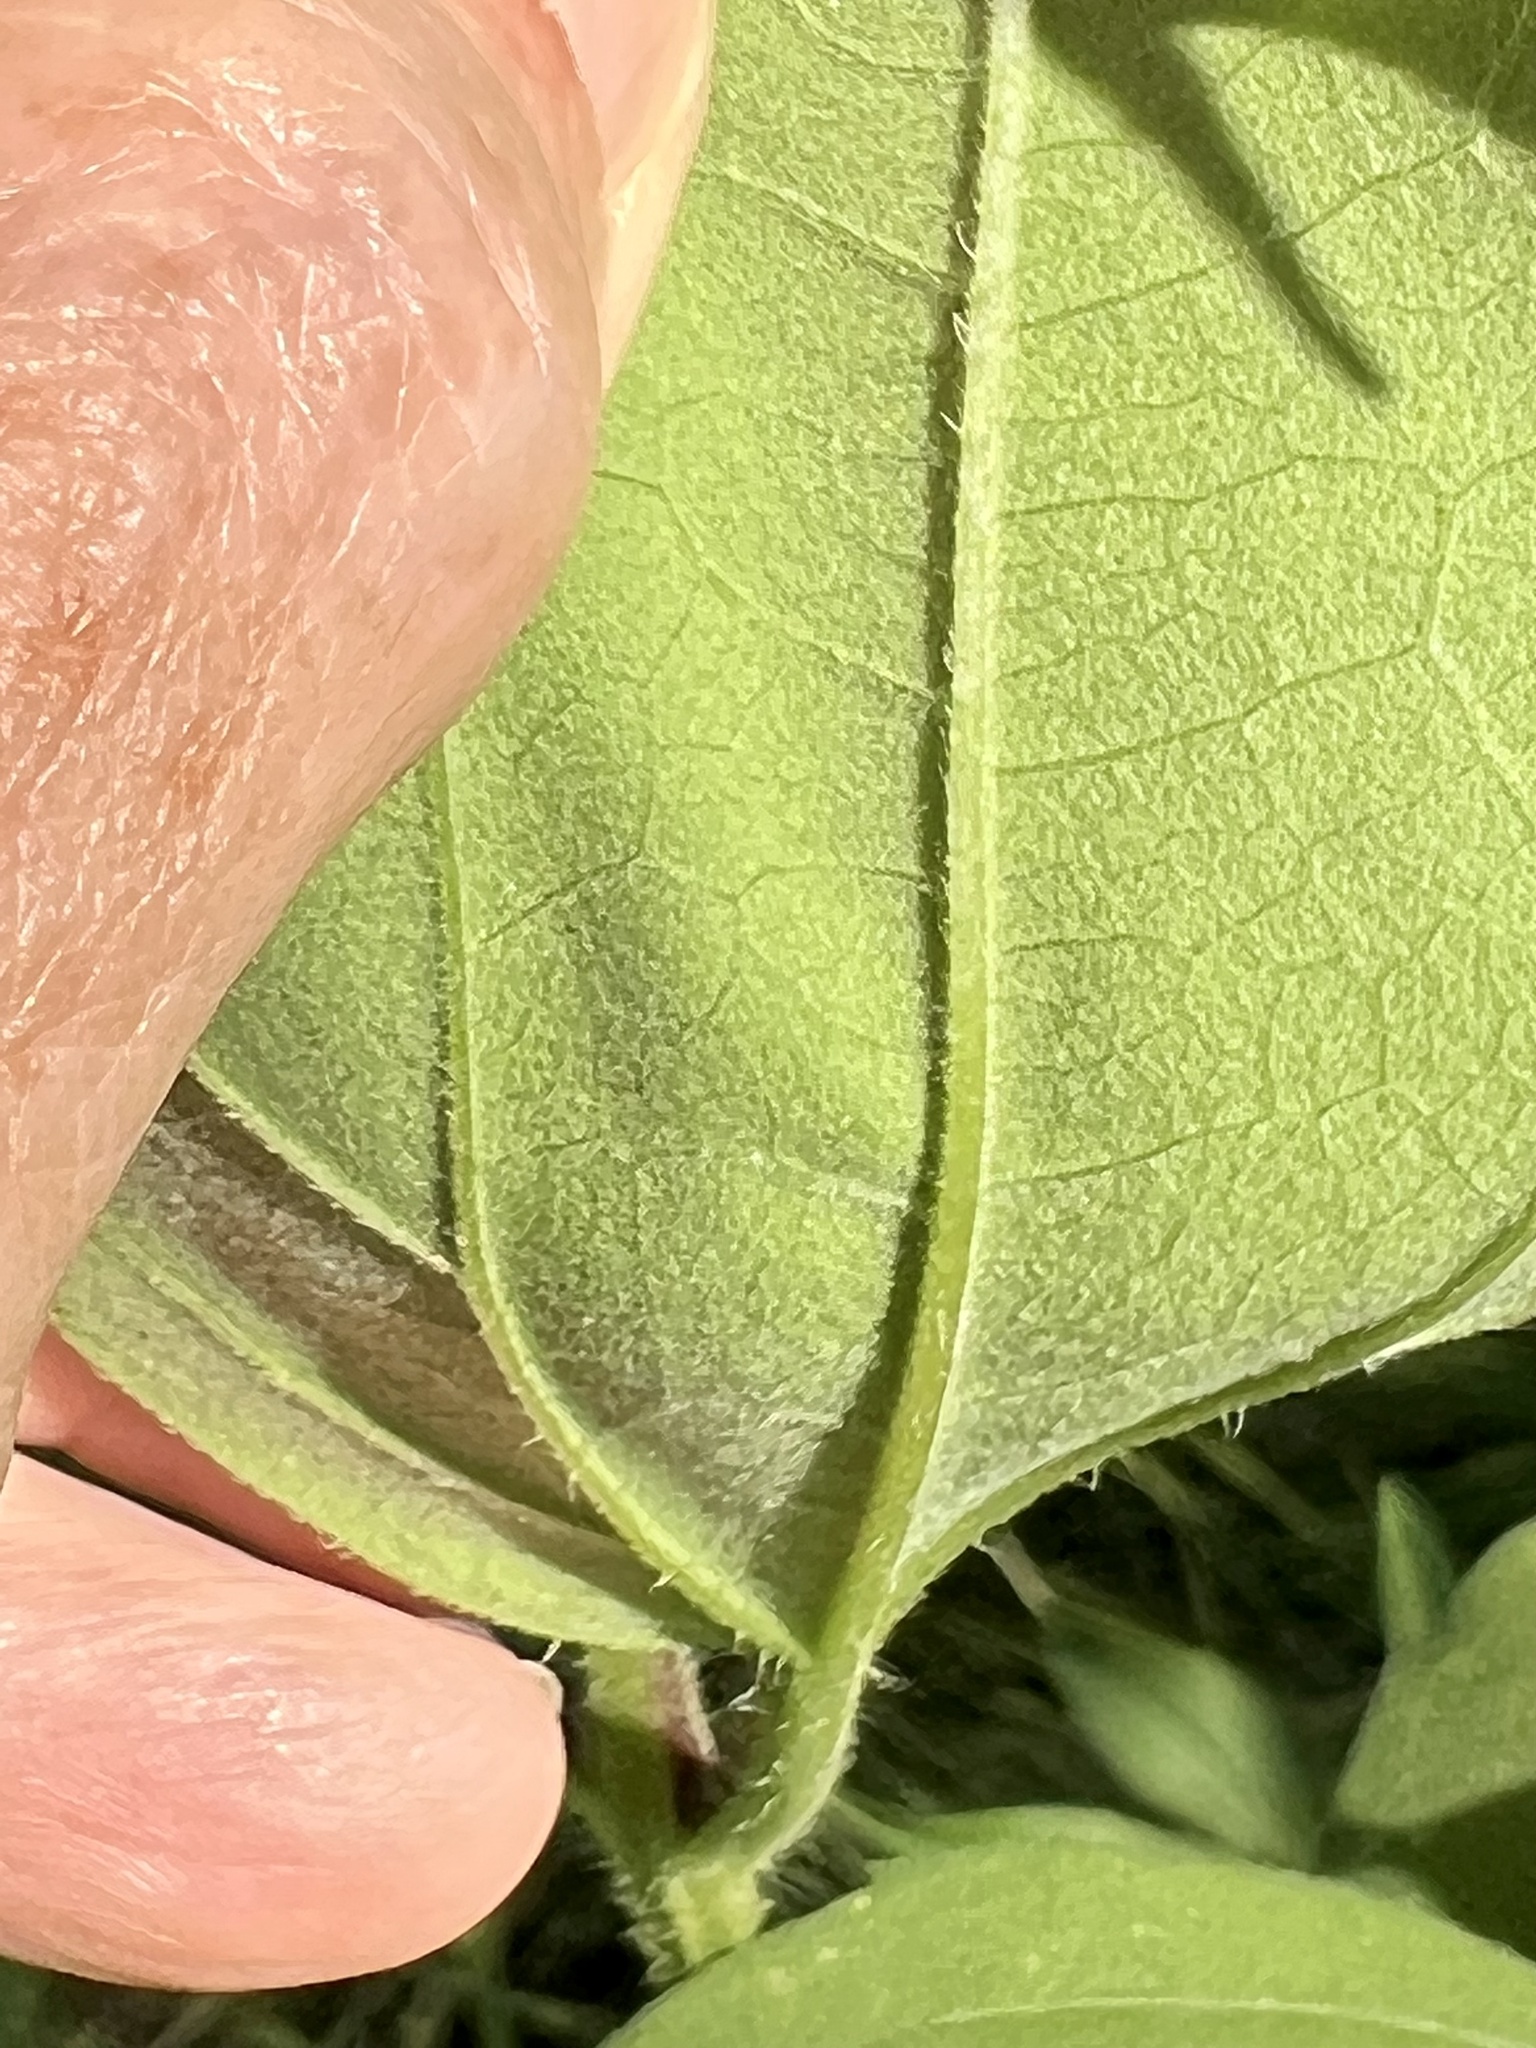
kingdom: Plantae
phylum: Tracheophyta
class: Magnoliopsida
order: Asterales
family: Asteraceae
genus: Iva
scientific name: Iva annua
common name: Marsh-elder
